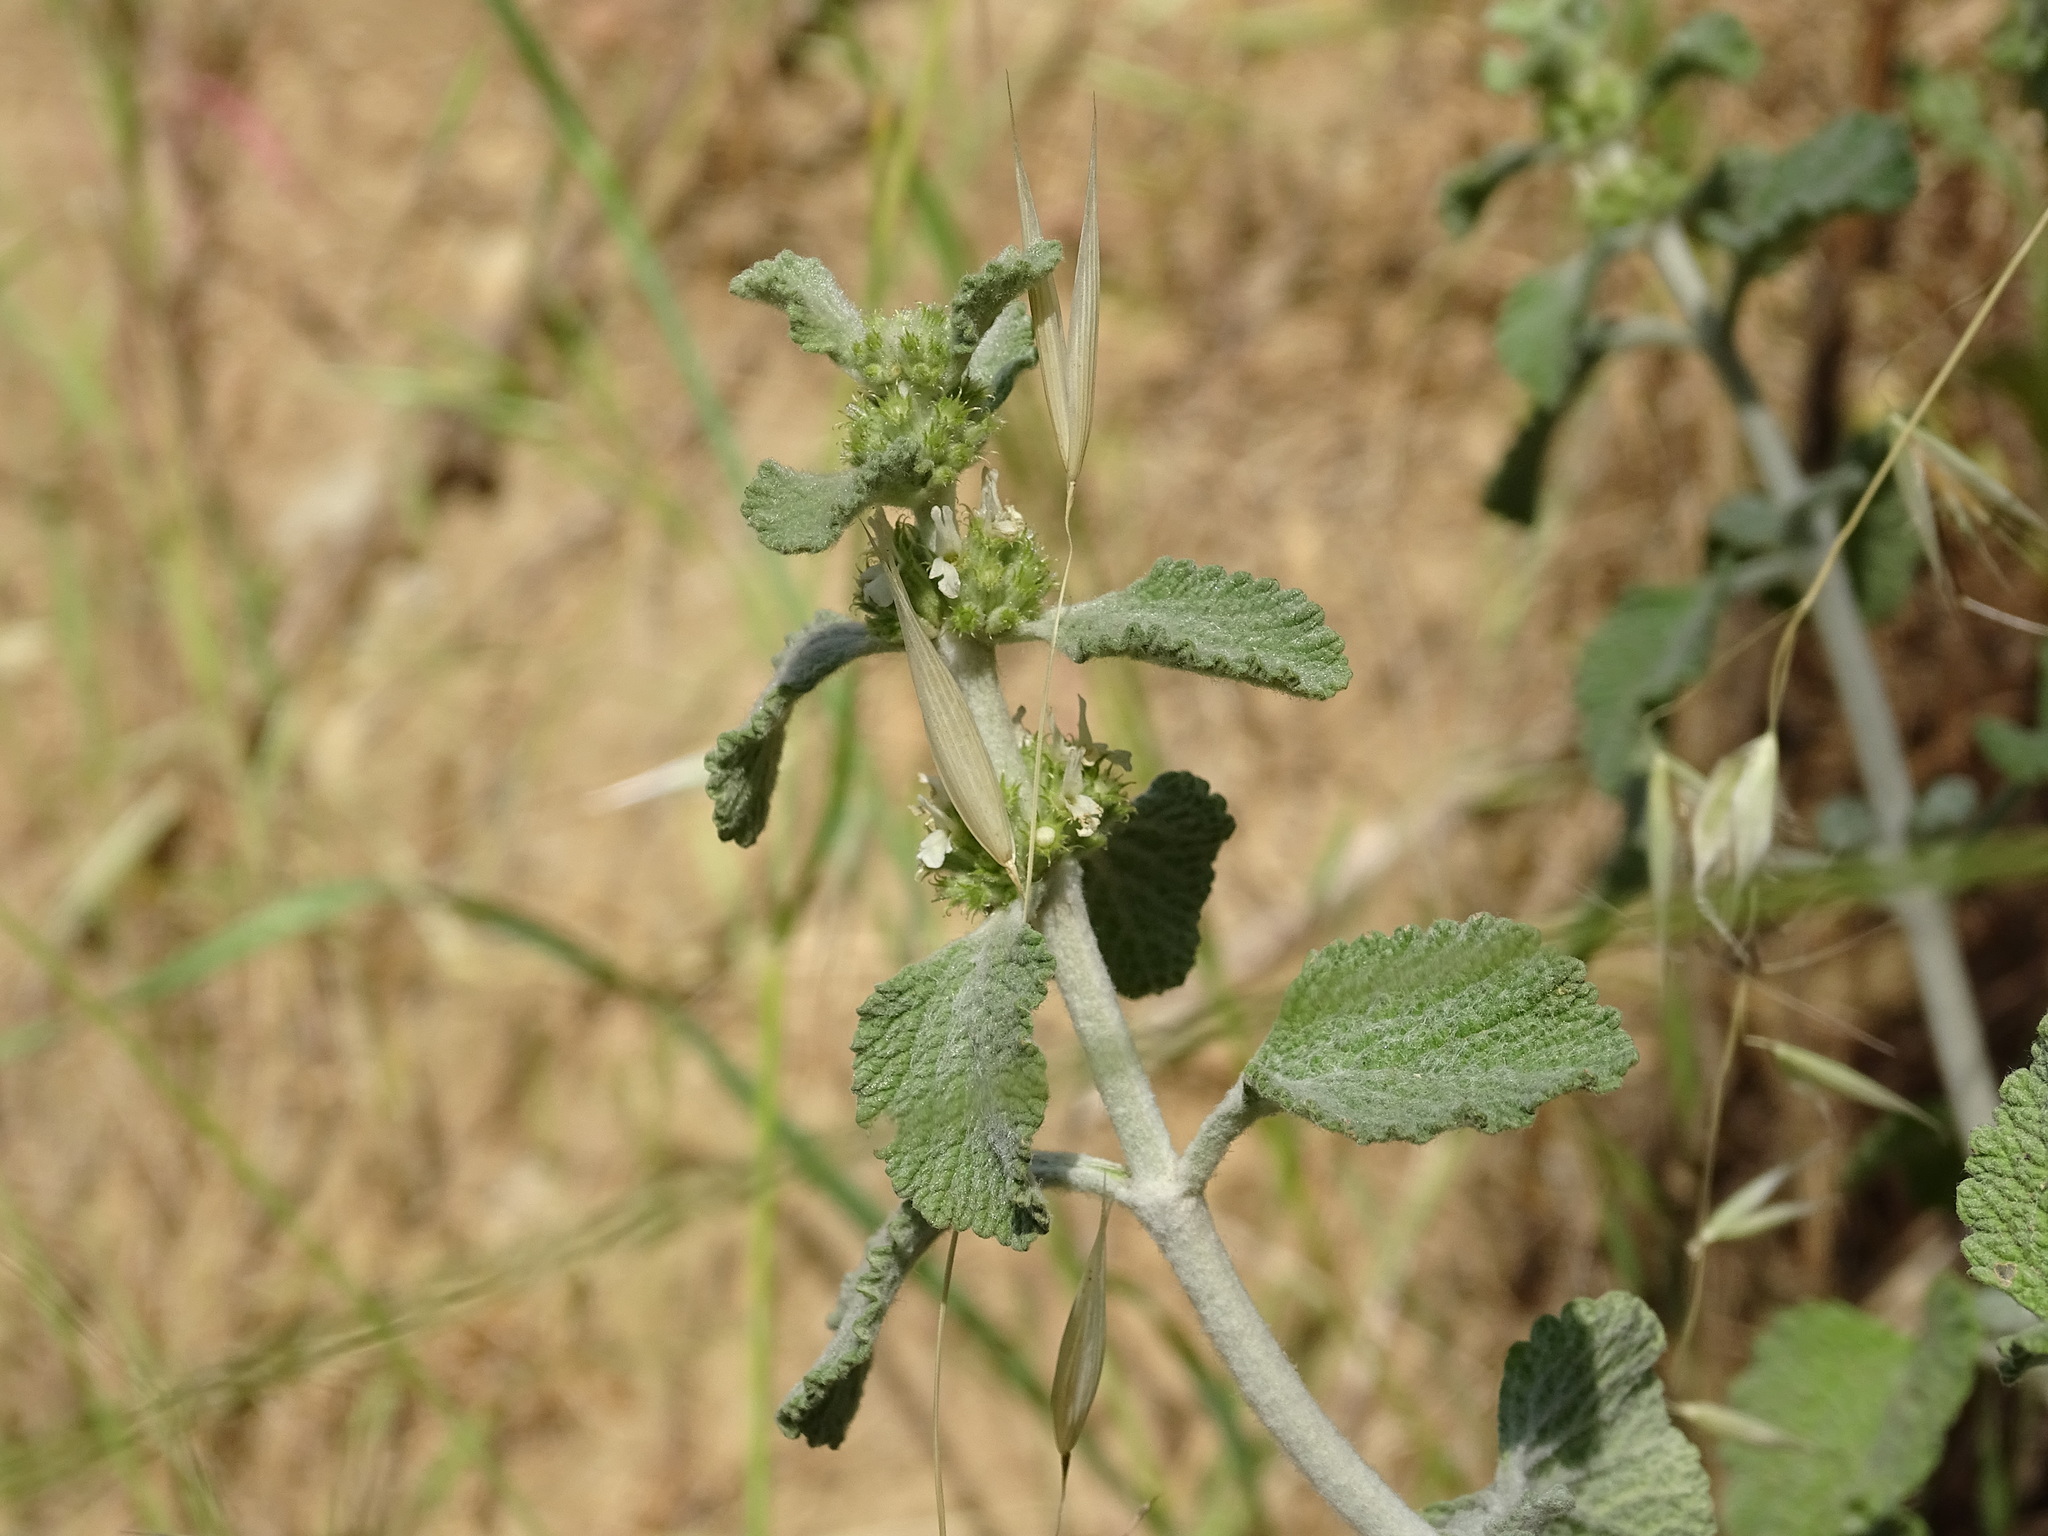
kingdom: Plantae
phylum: Tracheophyta
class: Magnoliopsida
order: Lamiales
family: Lamiaceae
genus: Marrubium
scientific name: Marrubium vulgare
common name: Horehound
